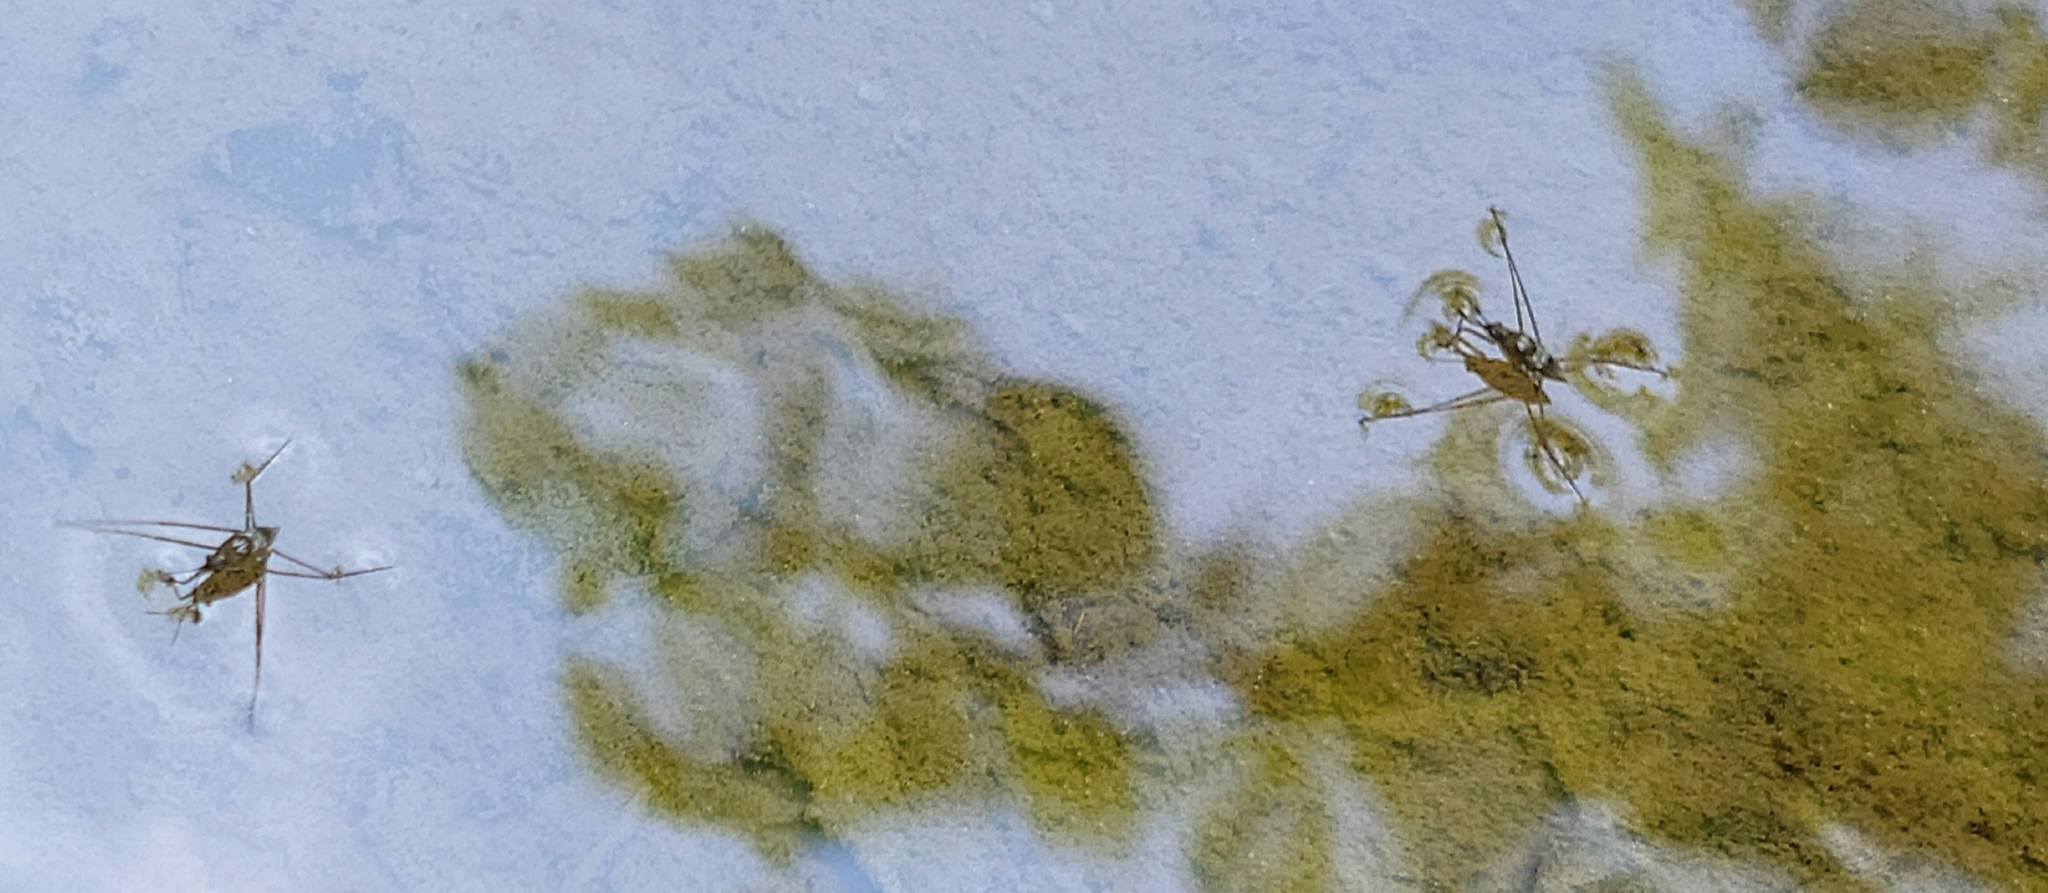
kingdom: Animalia
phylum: Arthropoda
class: Insecta
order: Hemiptera
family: Gerridae
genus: Aquarius
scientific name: Aquarius
